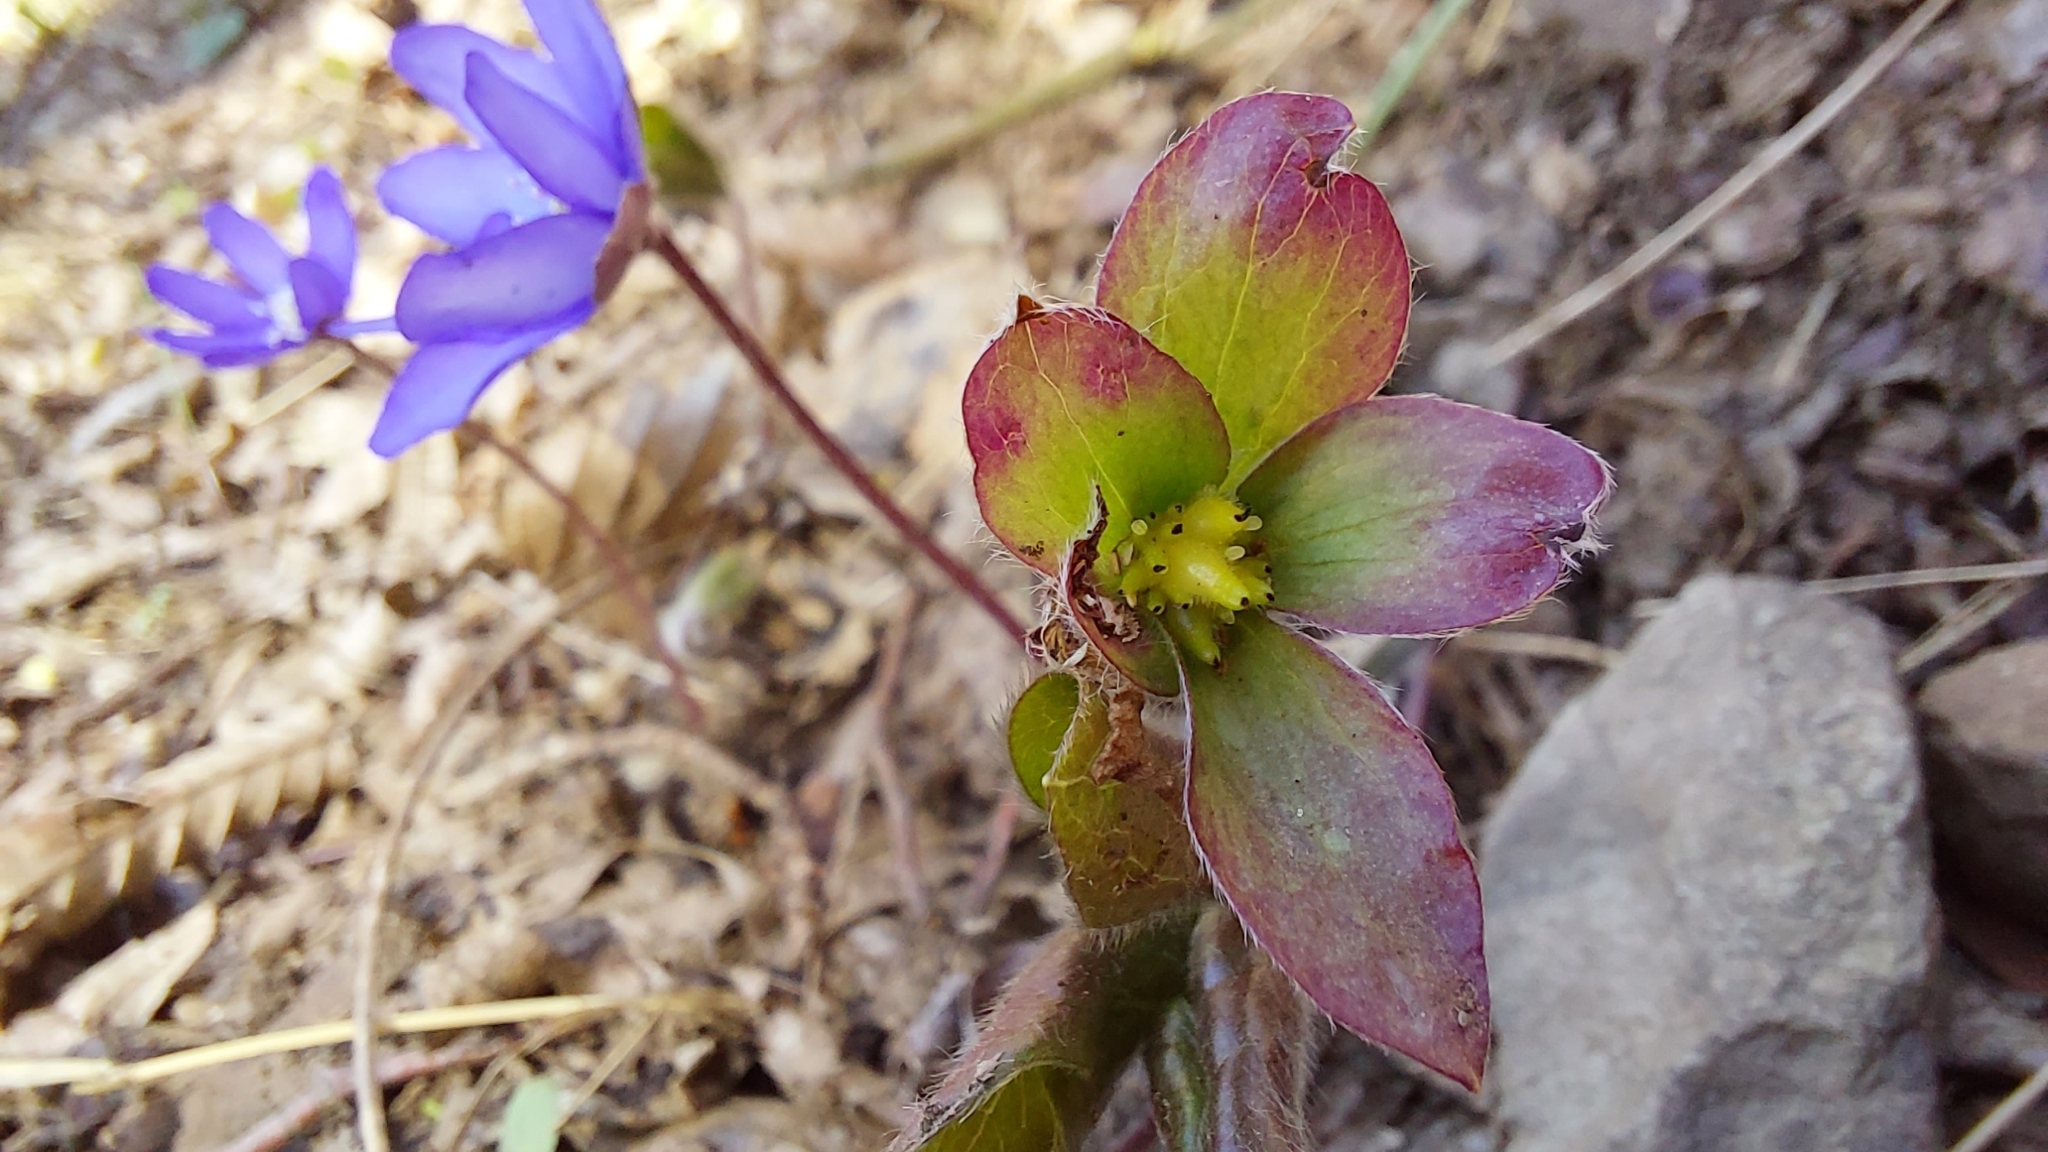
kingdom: Plantae
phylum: Tracheophyta
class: Magnoliopsida
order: Ranunculales
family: Ranunculaceae
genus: Hepatica
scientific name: Hepatica nobilis
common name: Liverleaf
